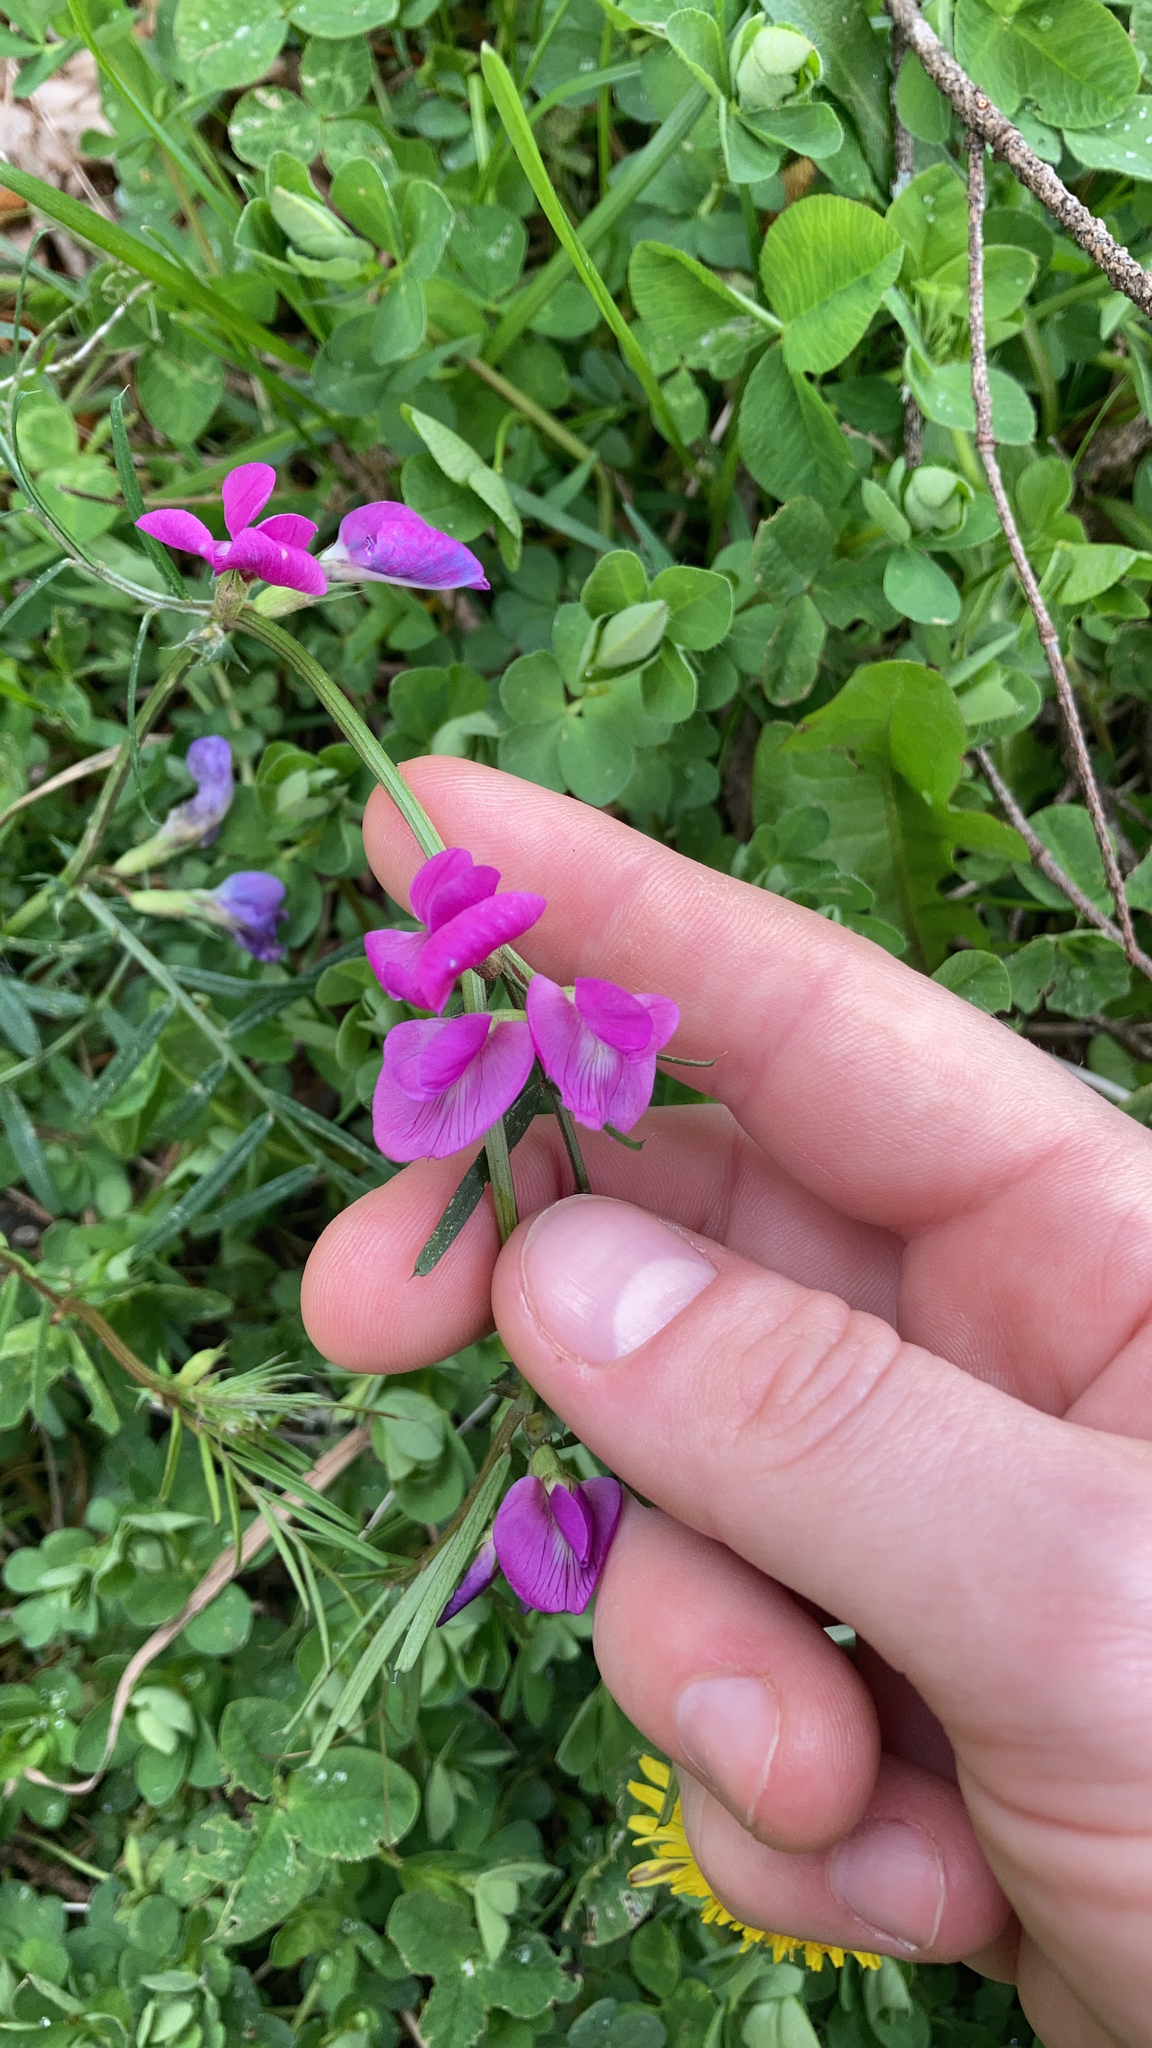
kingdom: Plantae
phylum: Tracheophyta
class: Magnoliopsida
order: Fabales
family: Fabaceae
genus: Vicia
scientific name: Vicia sativa
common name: Garden vetch
